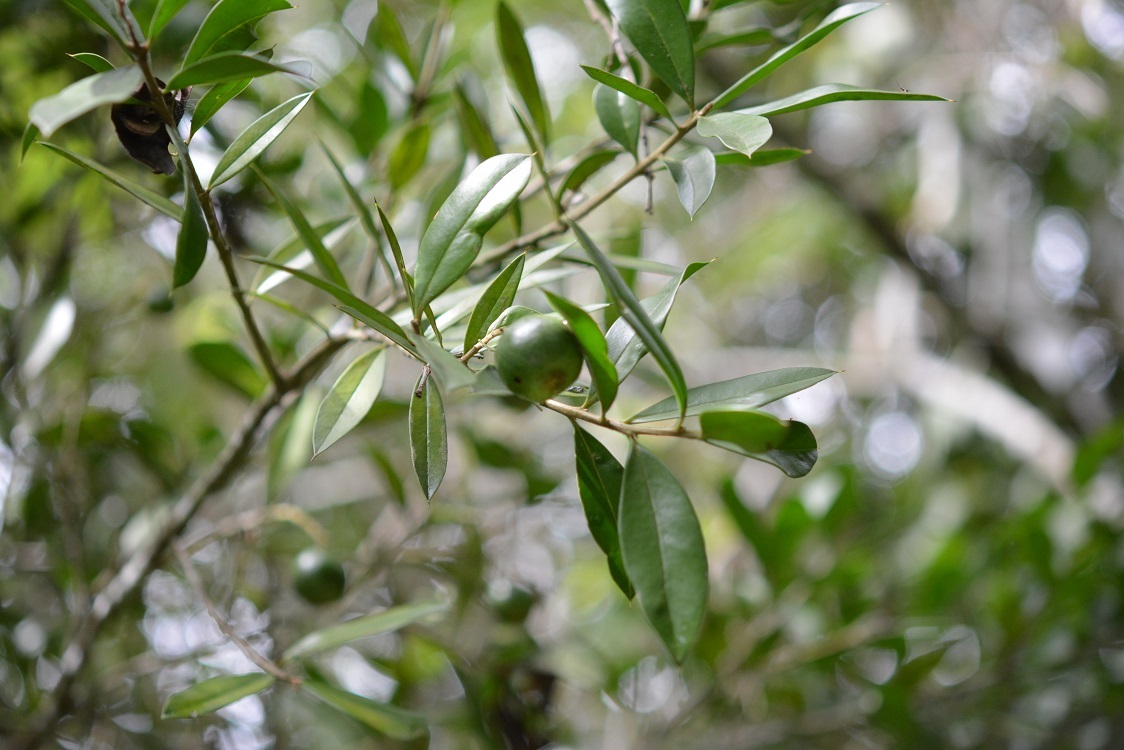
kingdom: Plantae
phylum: Tracheophyta
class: Magnoliopsida
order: Ericales
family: Primulaceae
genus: Bonellia
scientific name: Bonellia macrocarpa
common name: Primrose
